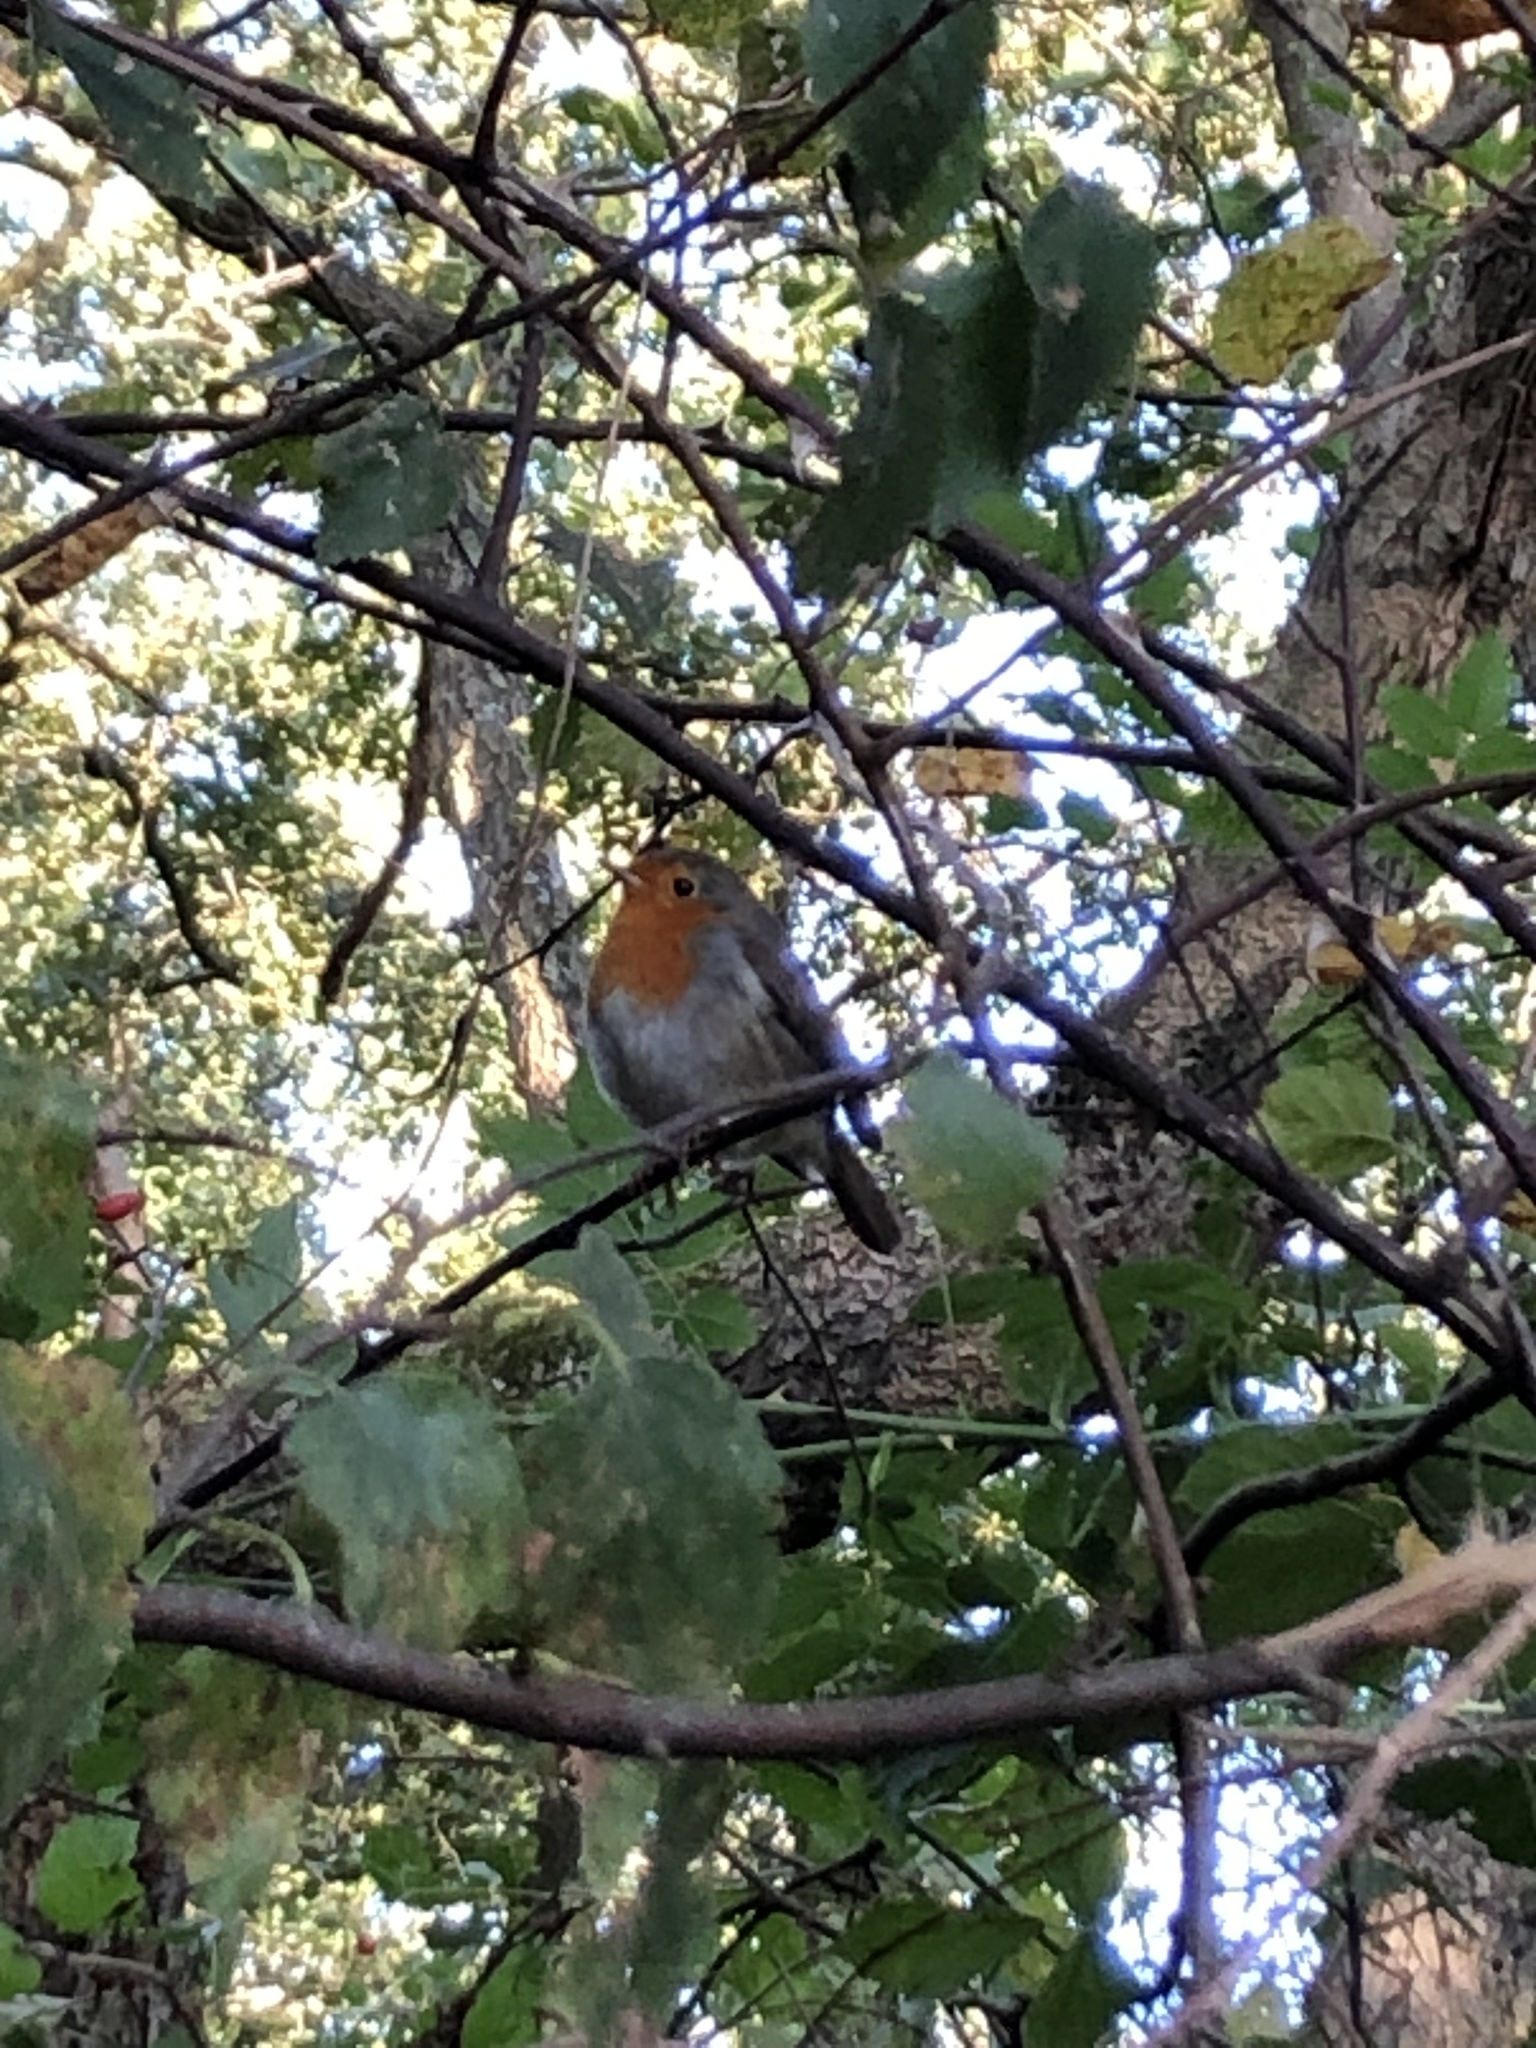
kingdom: Animalia
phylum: Chordata
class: Aves
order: Passeriformes
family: Muscicapidae
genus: Erithacus
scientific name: Erithacus rubecula
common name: European robin
